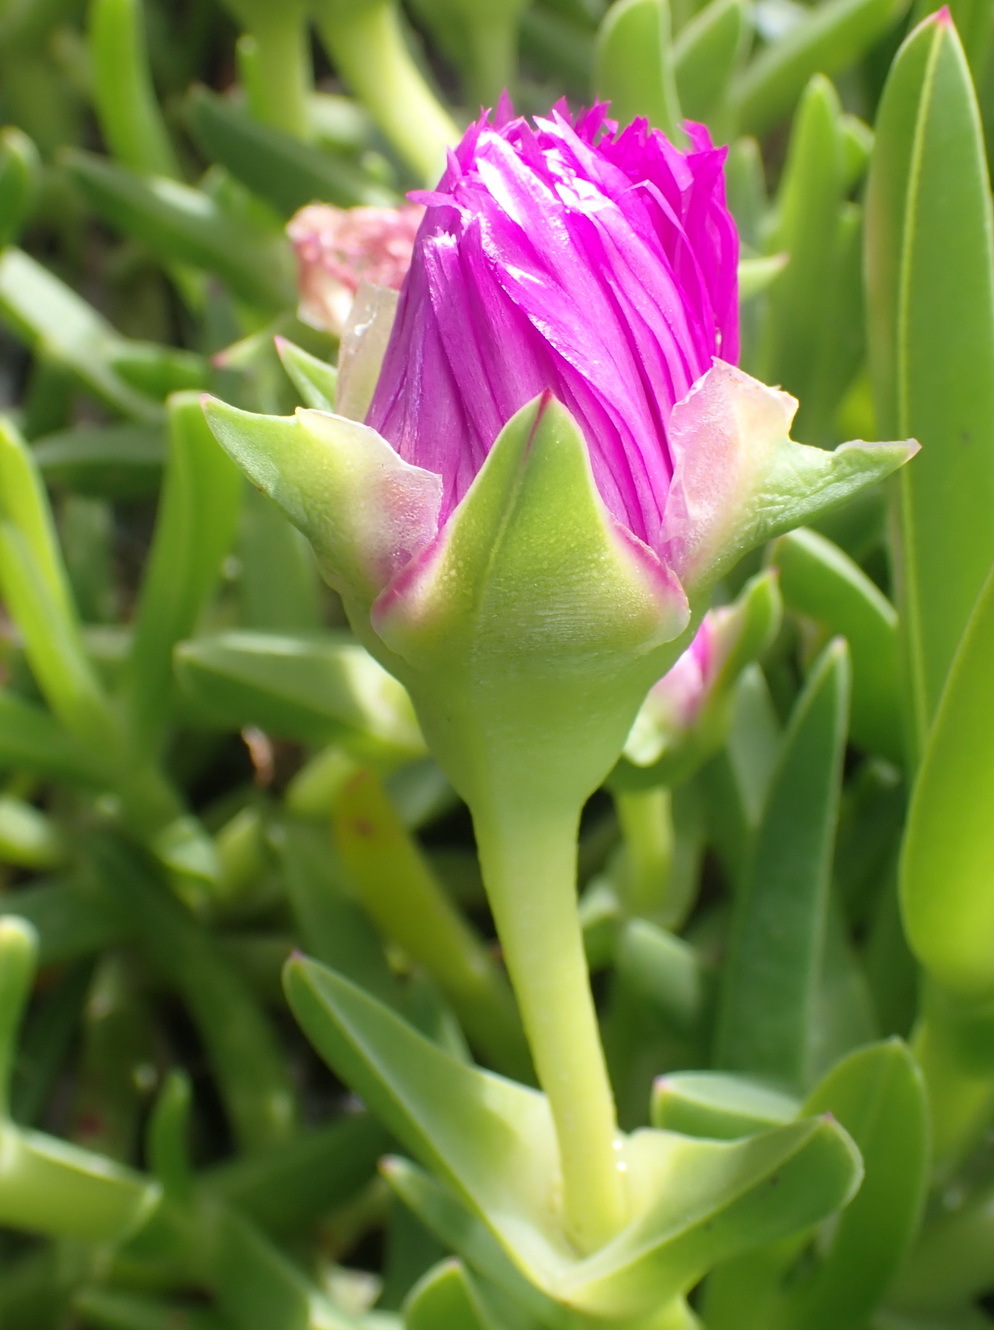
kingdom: Plantae
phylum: Tracheophyta
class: Magnoliopsida
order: Caryophyllales
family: Aizoaceae
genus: Carpobrotus
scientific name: Carpobrotus deliciosus
